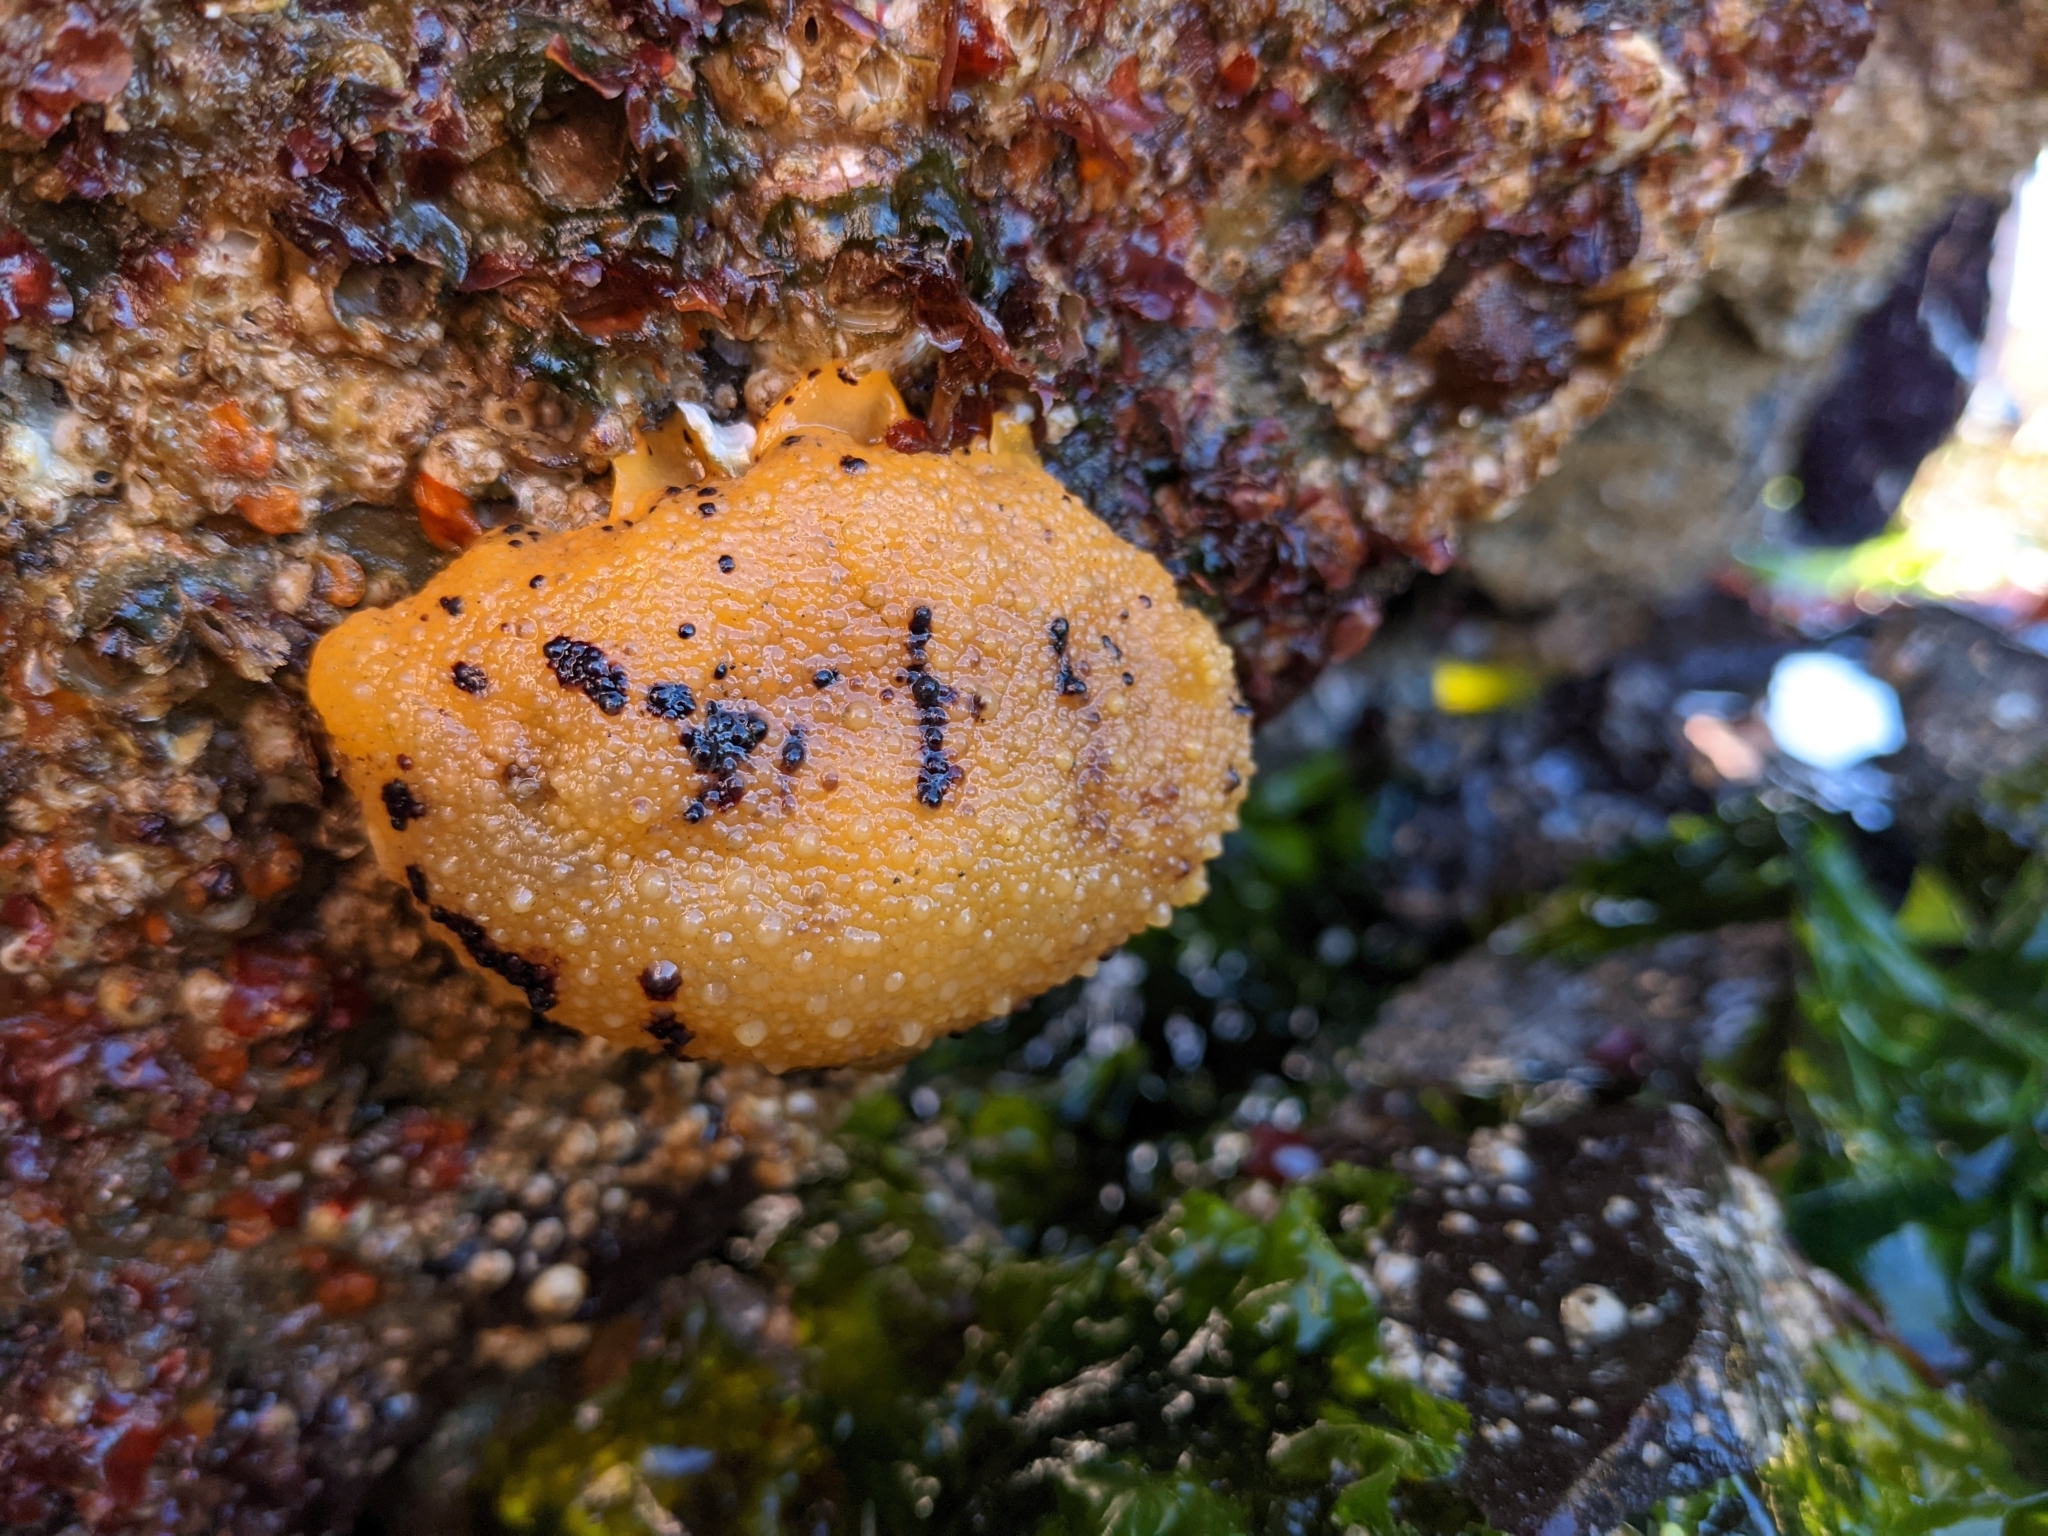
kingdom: Animalia
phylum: Mollusca
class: Gastropoda
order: Nudibranchia
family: Dorididae
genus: Doris
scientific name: Doris montereyensis
